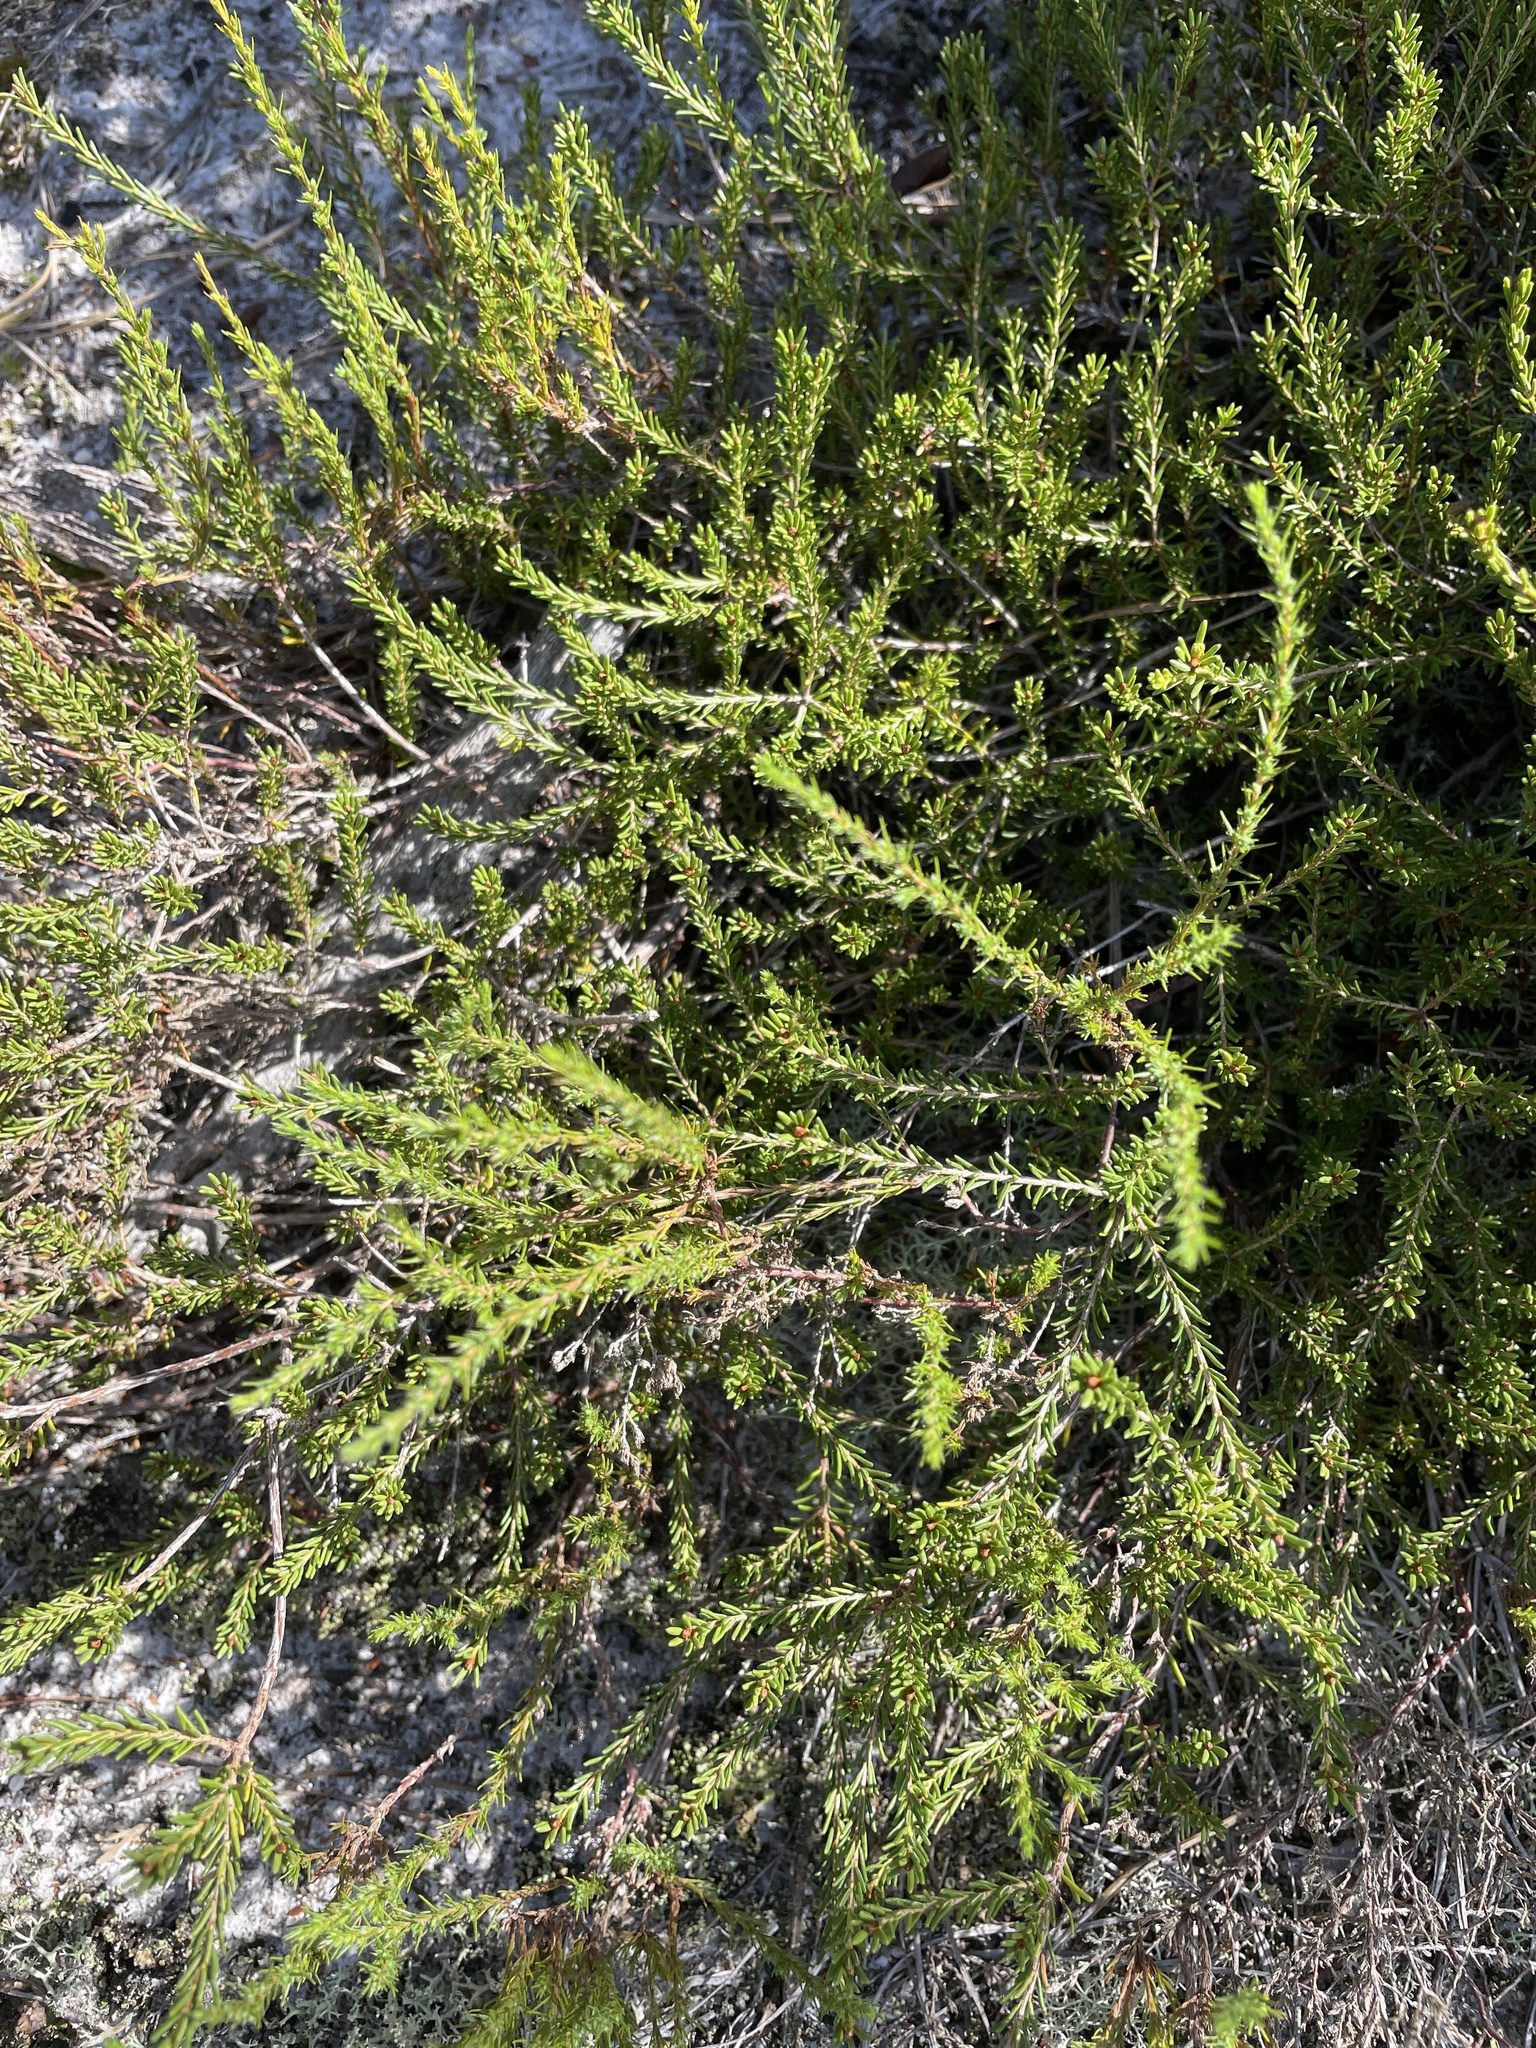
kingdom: Plantae
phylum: Tracheophyta
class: Magnoliopsida
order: Ericales
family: Ericaceae
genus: Corema
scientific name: Corema conradii
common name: Broom-crowberry
